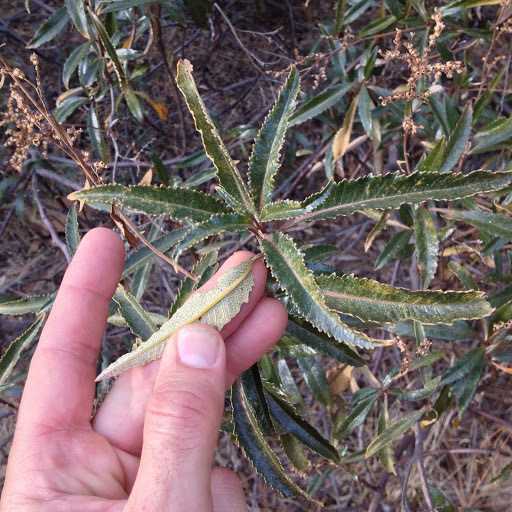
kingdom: Plantae
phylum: Tracheophyta
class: Magnoliopsida
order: Boraginales
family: Namaceae
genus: Eriodictyon
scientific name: Eriodictyon californicum
